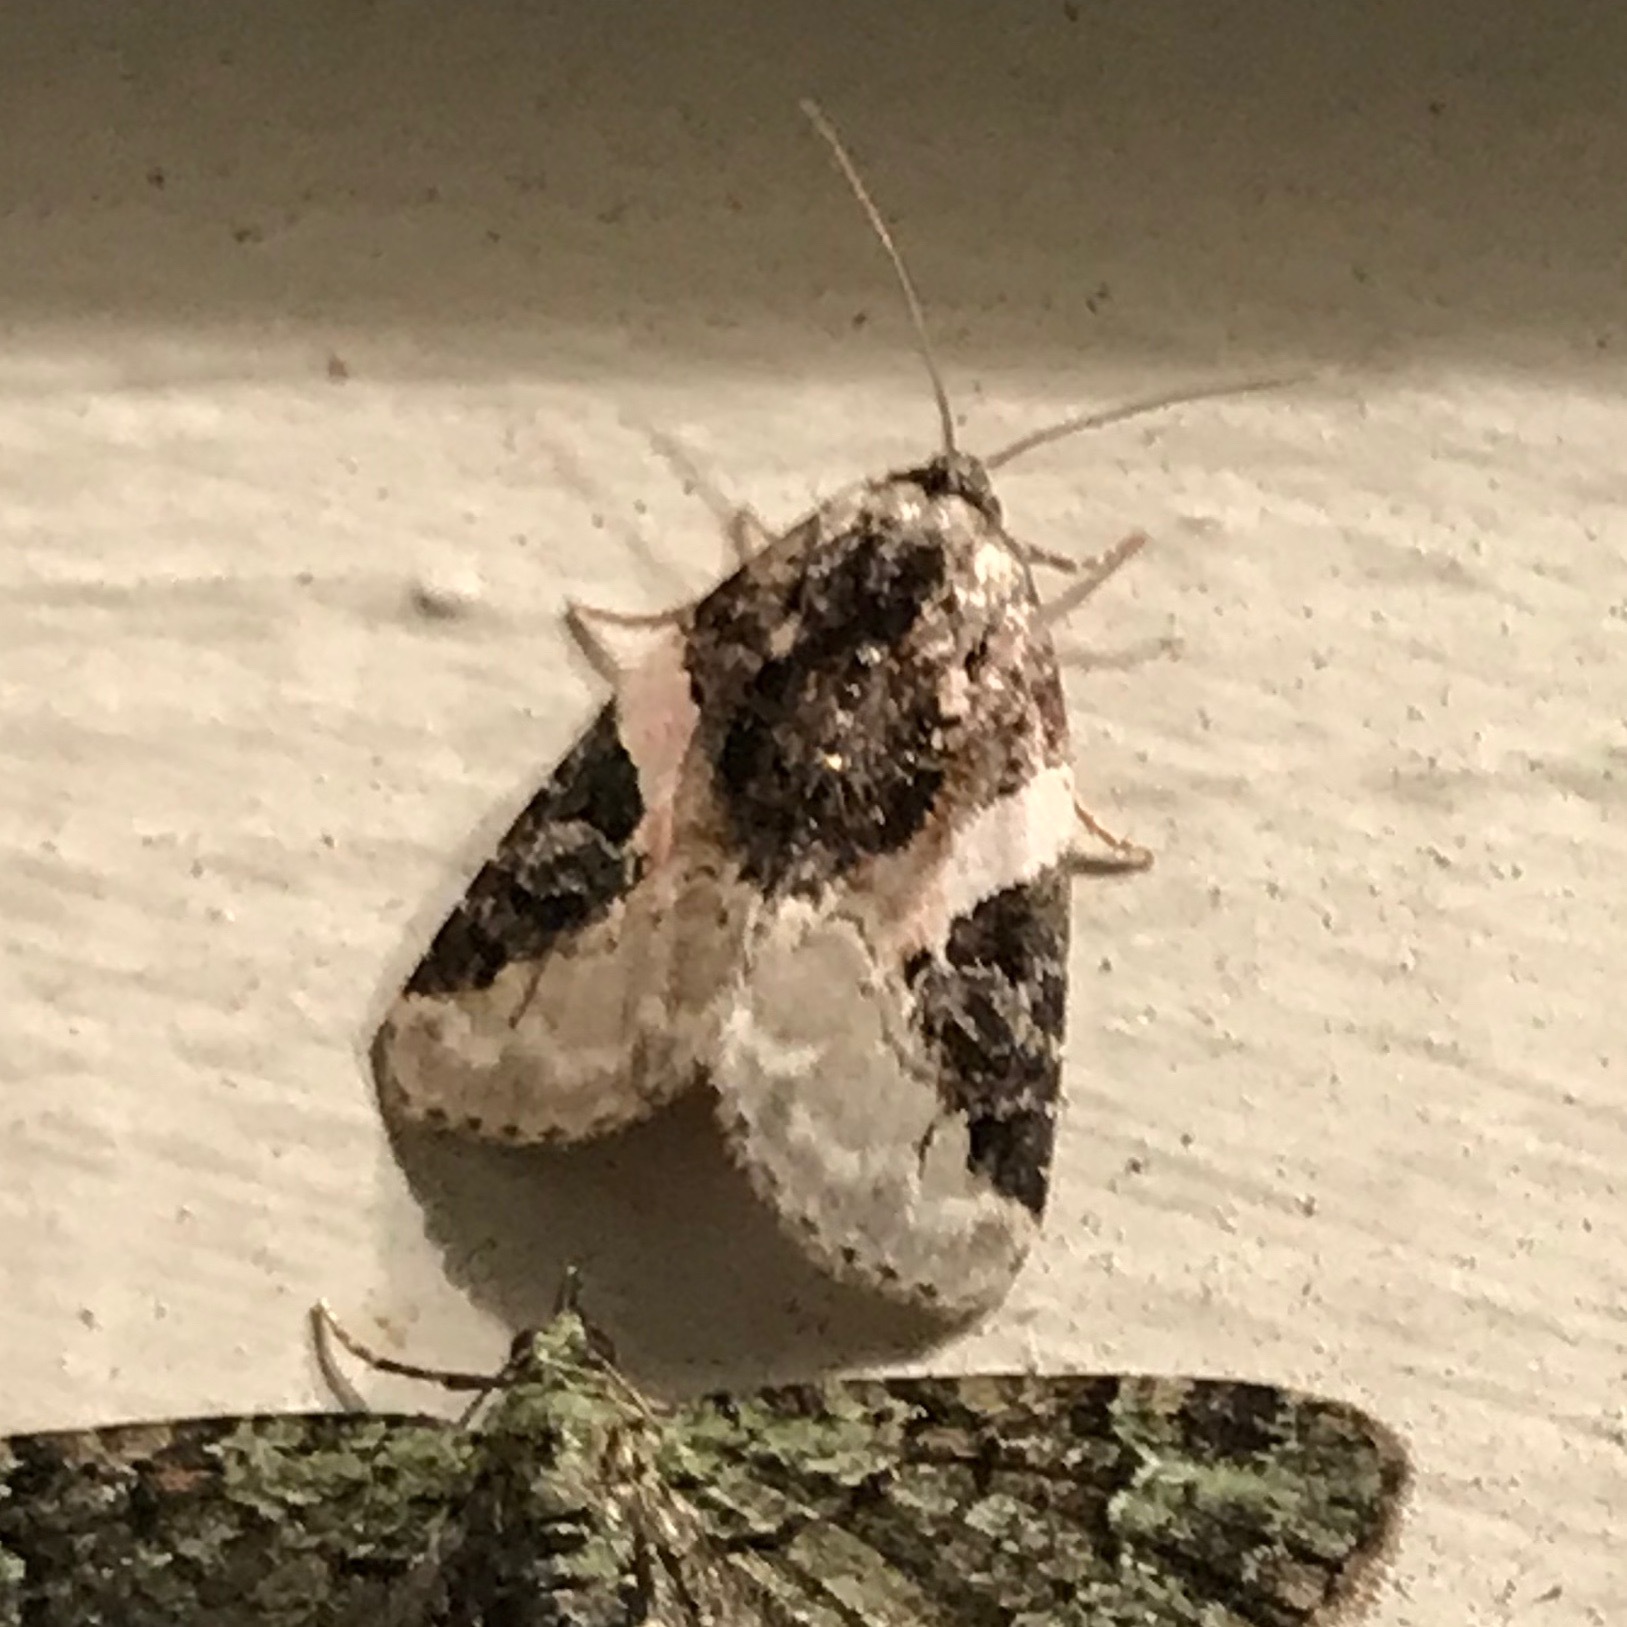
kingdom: Animalia
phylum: Arthropoda
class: Insecta
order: Lepidoptera
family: Noctuidae
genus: Pseudeustrotia
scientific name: Pseudeustrotia carneola
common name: Pink-barred lithacodia moth
